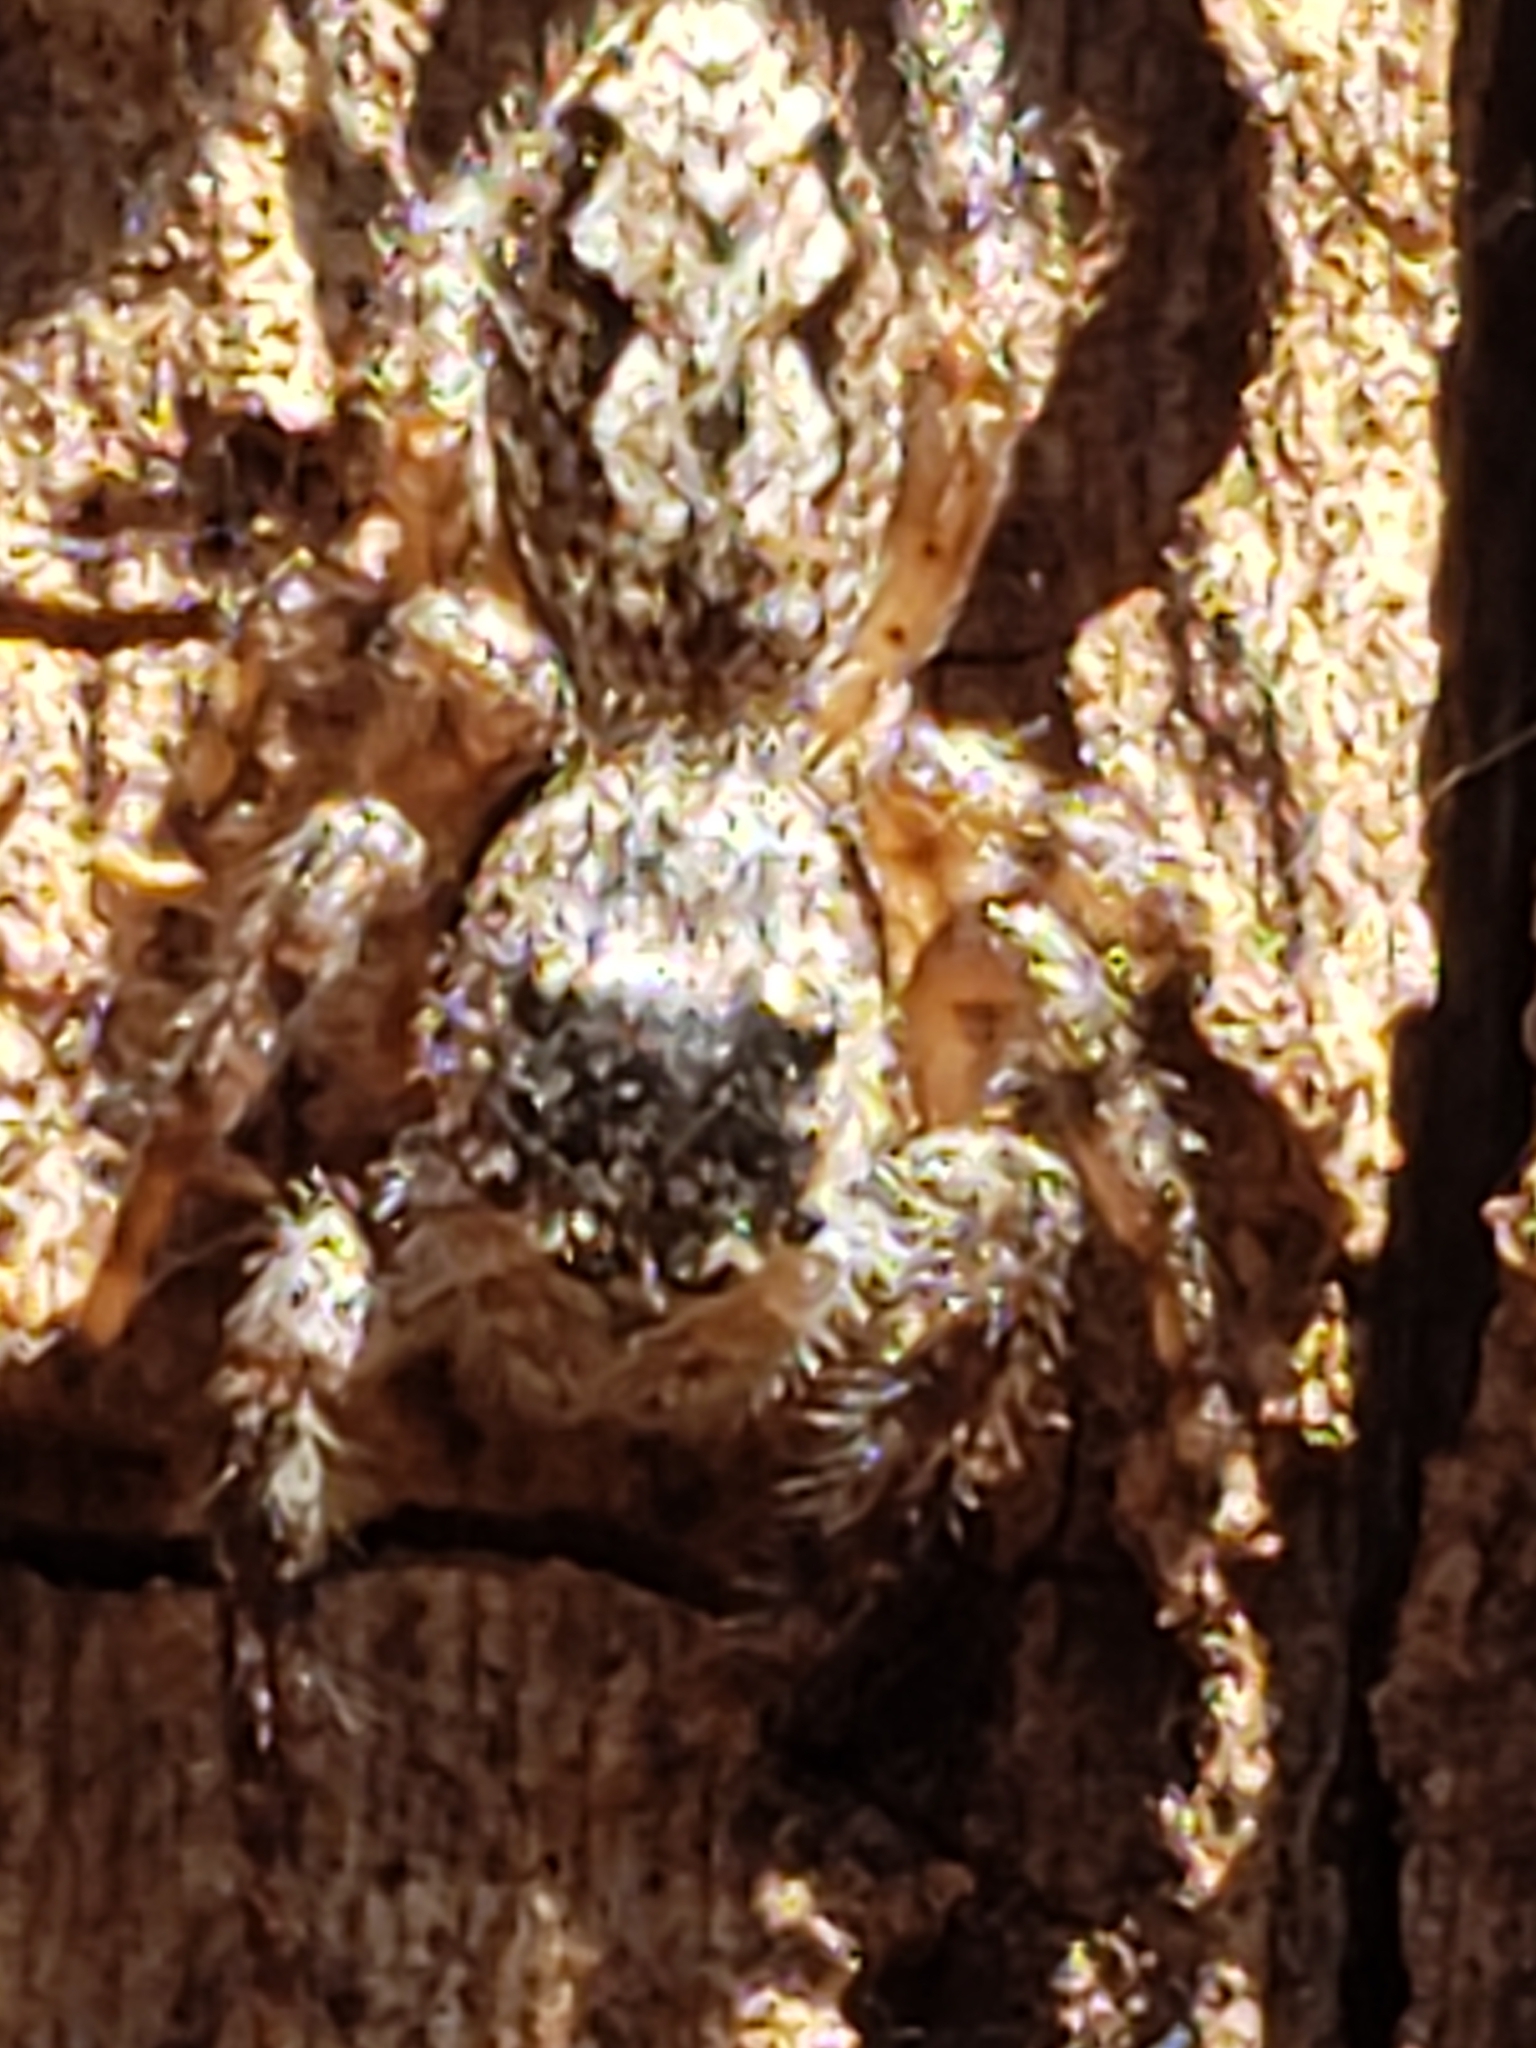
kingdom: Animalia
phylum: Arthropoda
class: Arachnida
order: Araneae
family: Salticidae
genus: Platycryptus
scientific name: Platycryptus undatus
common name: Tan jumping spider
